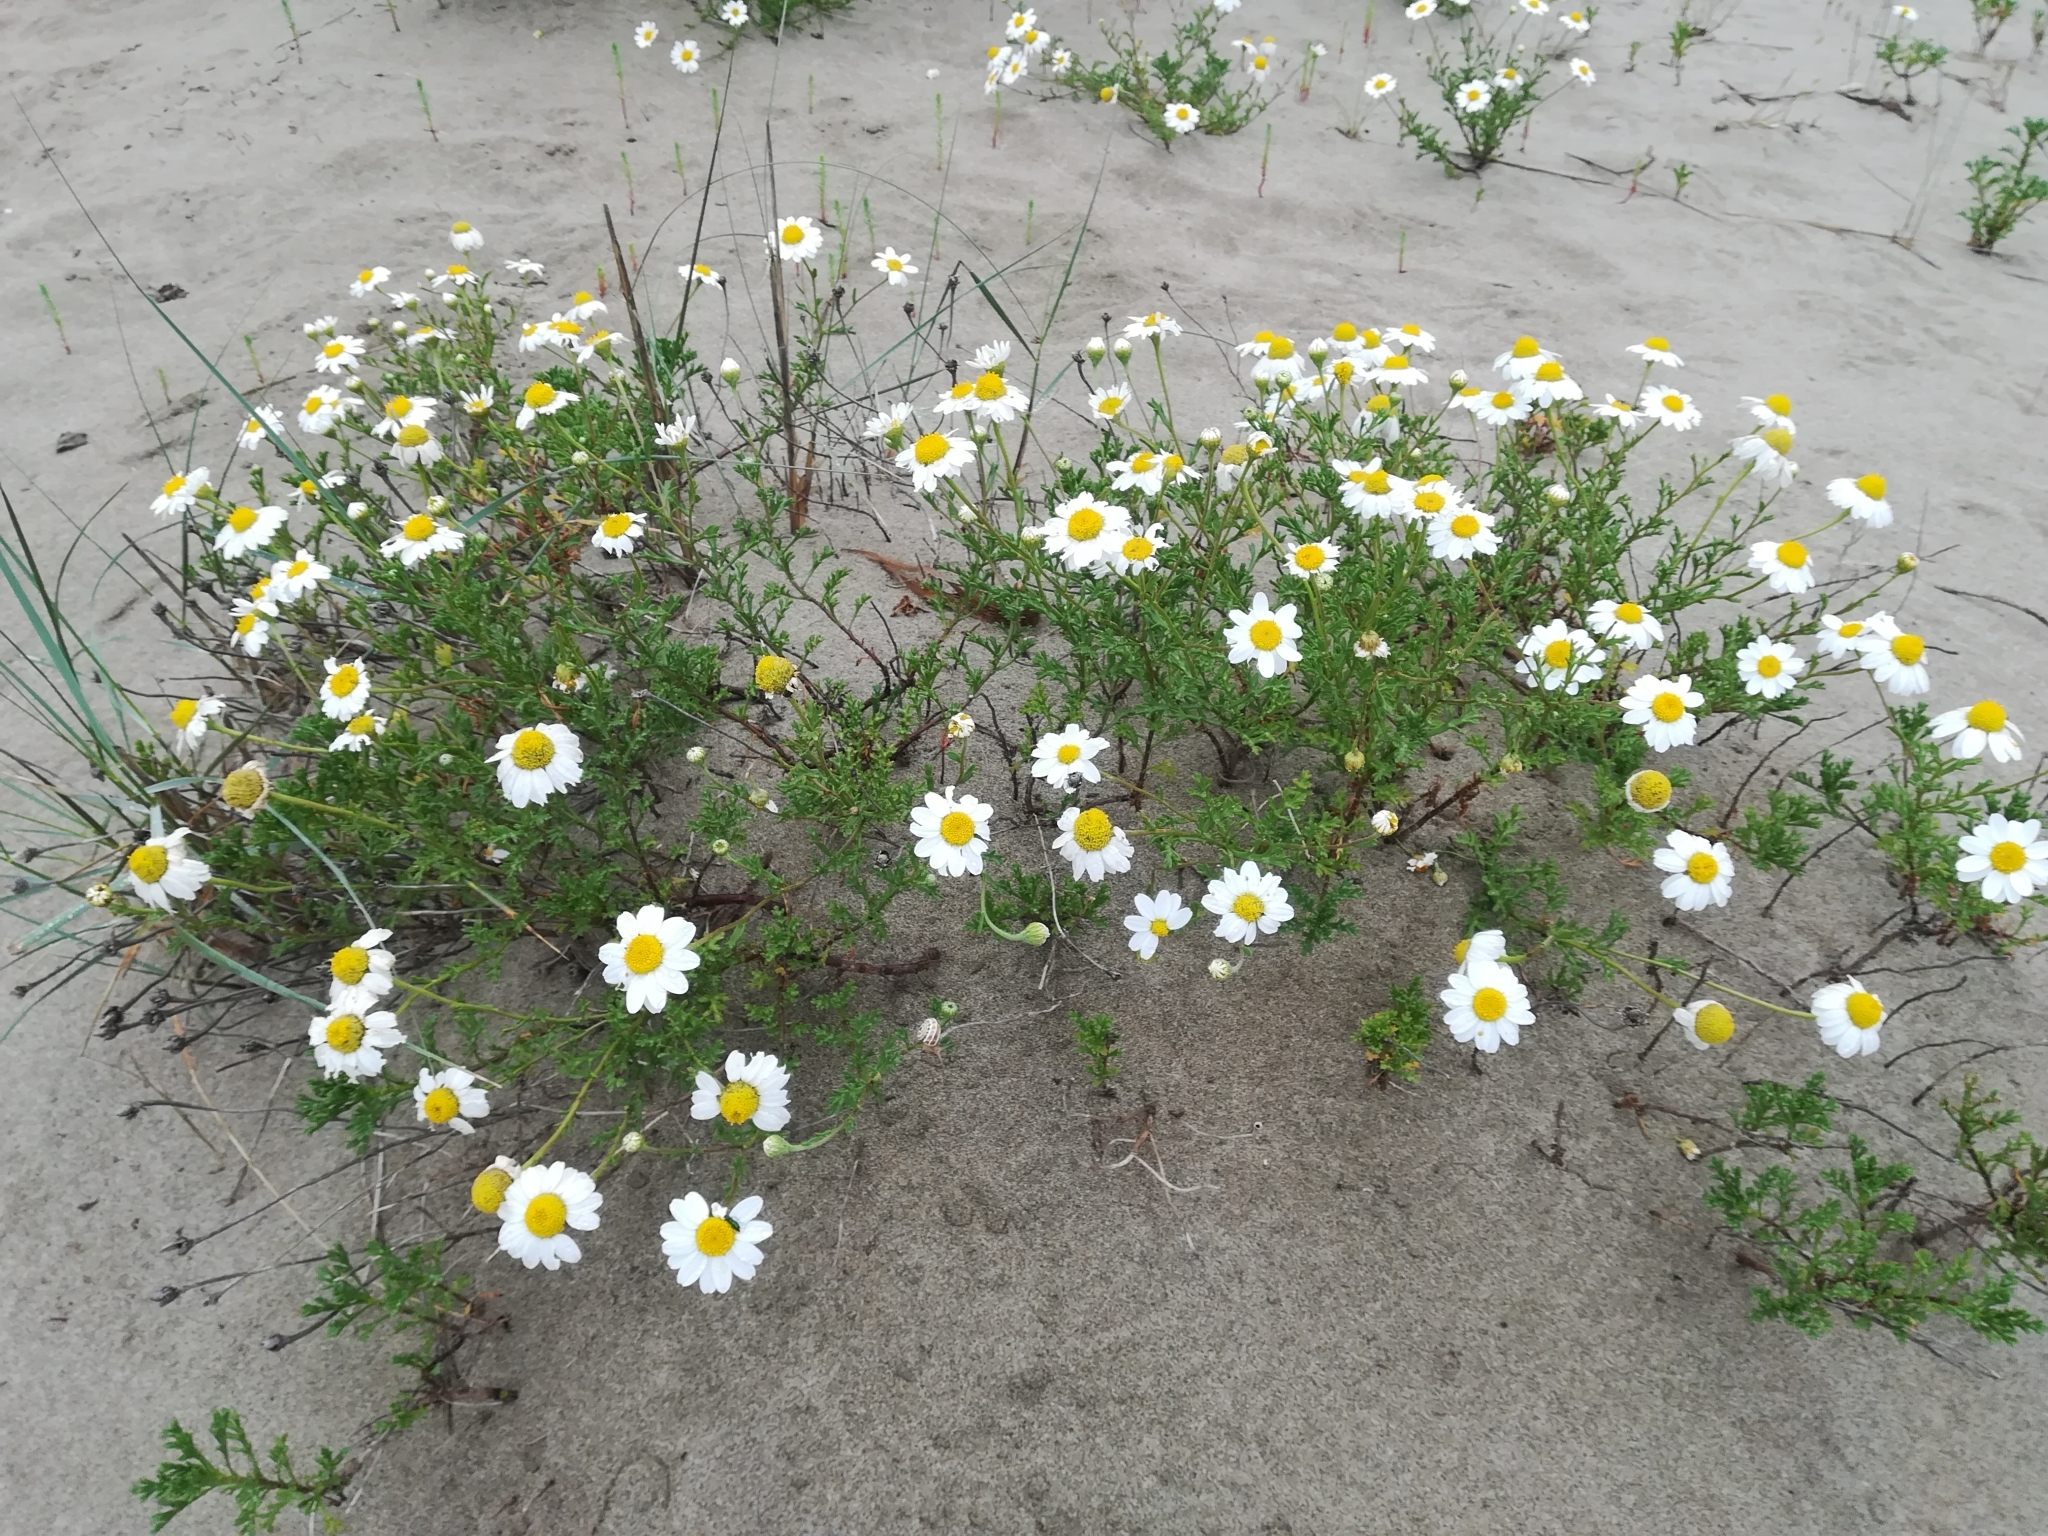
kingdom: Plantae
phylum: Tracheophyta
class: Magnoliopsida
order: Asterales
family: Asteraceae
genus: Anthemis
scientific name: Anthemis maritima
